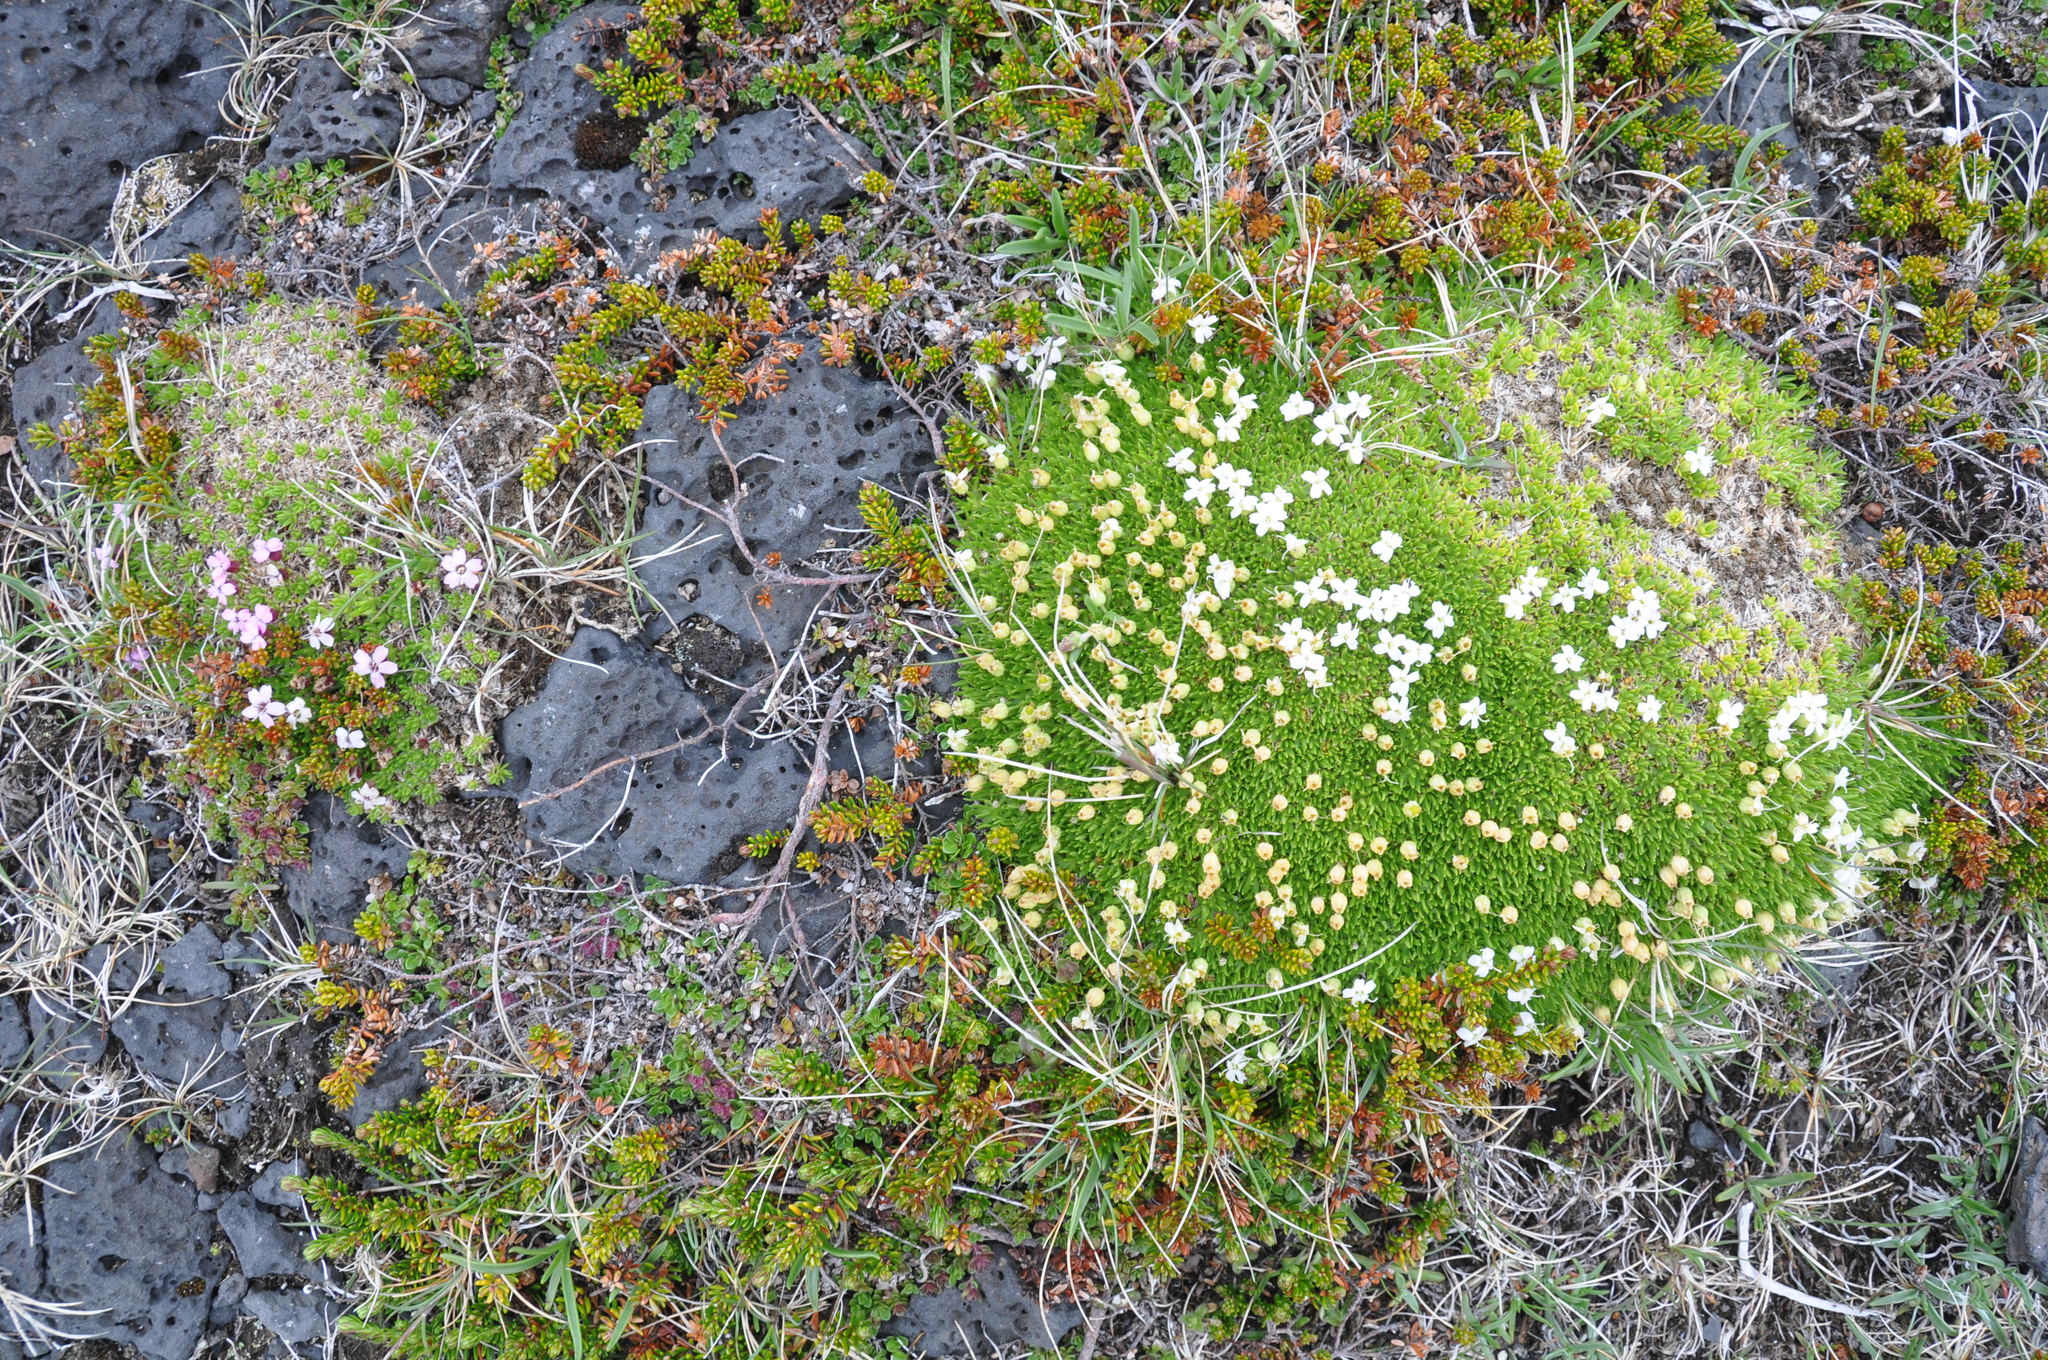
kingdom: Plantae
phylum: Tracheophyta
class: Magnoliopsida
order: Caryophyllales
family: Caryophyllaceae
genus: Silene
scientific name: Silene acaulis
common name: Moss campion
